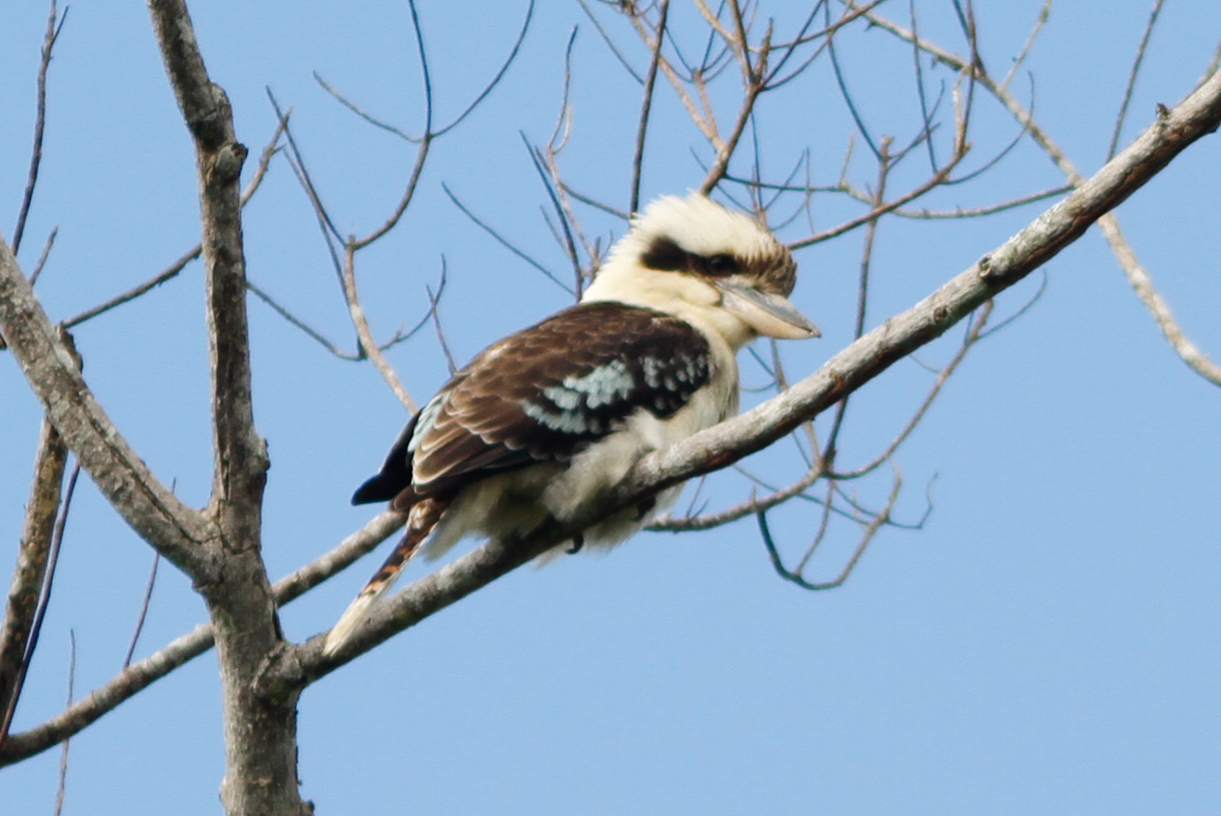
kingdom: Animalia
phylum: Chordata
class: Aves
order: Coraciiformes
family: Alcedinidae
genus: Dacelo
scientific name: Dacelo novaeguineae
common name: Laughing kookaburra
